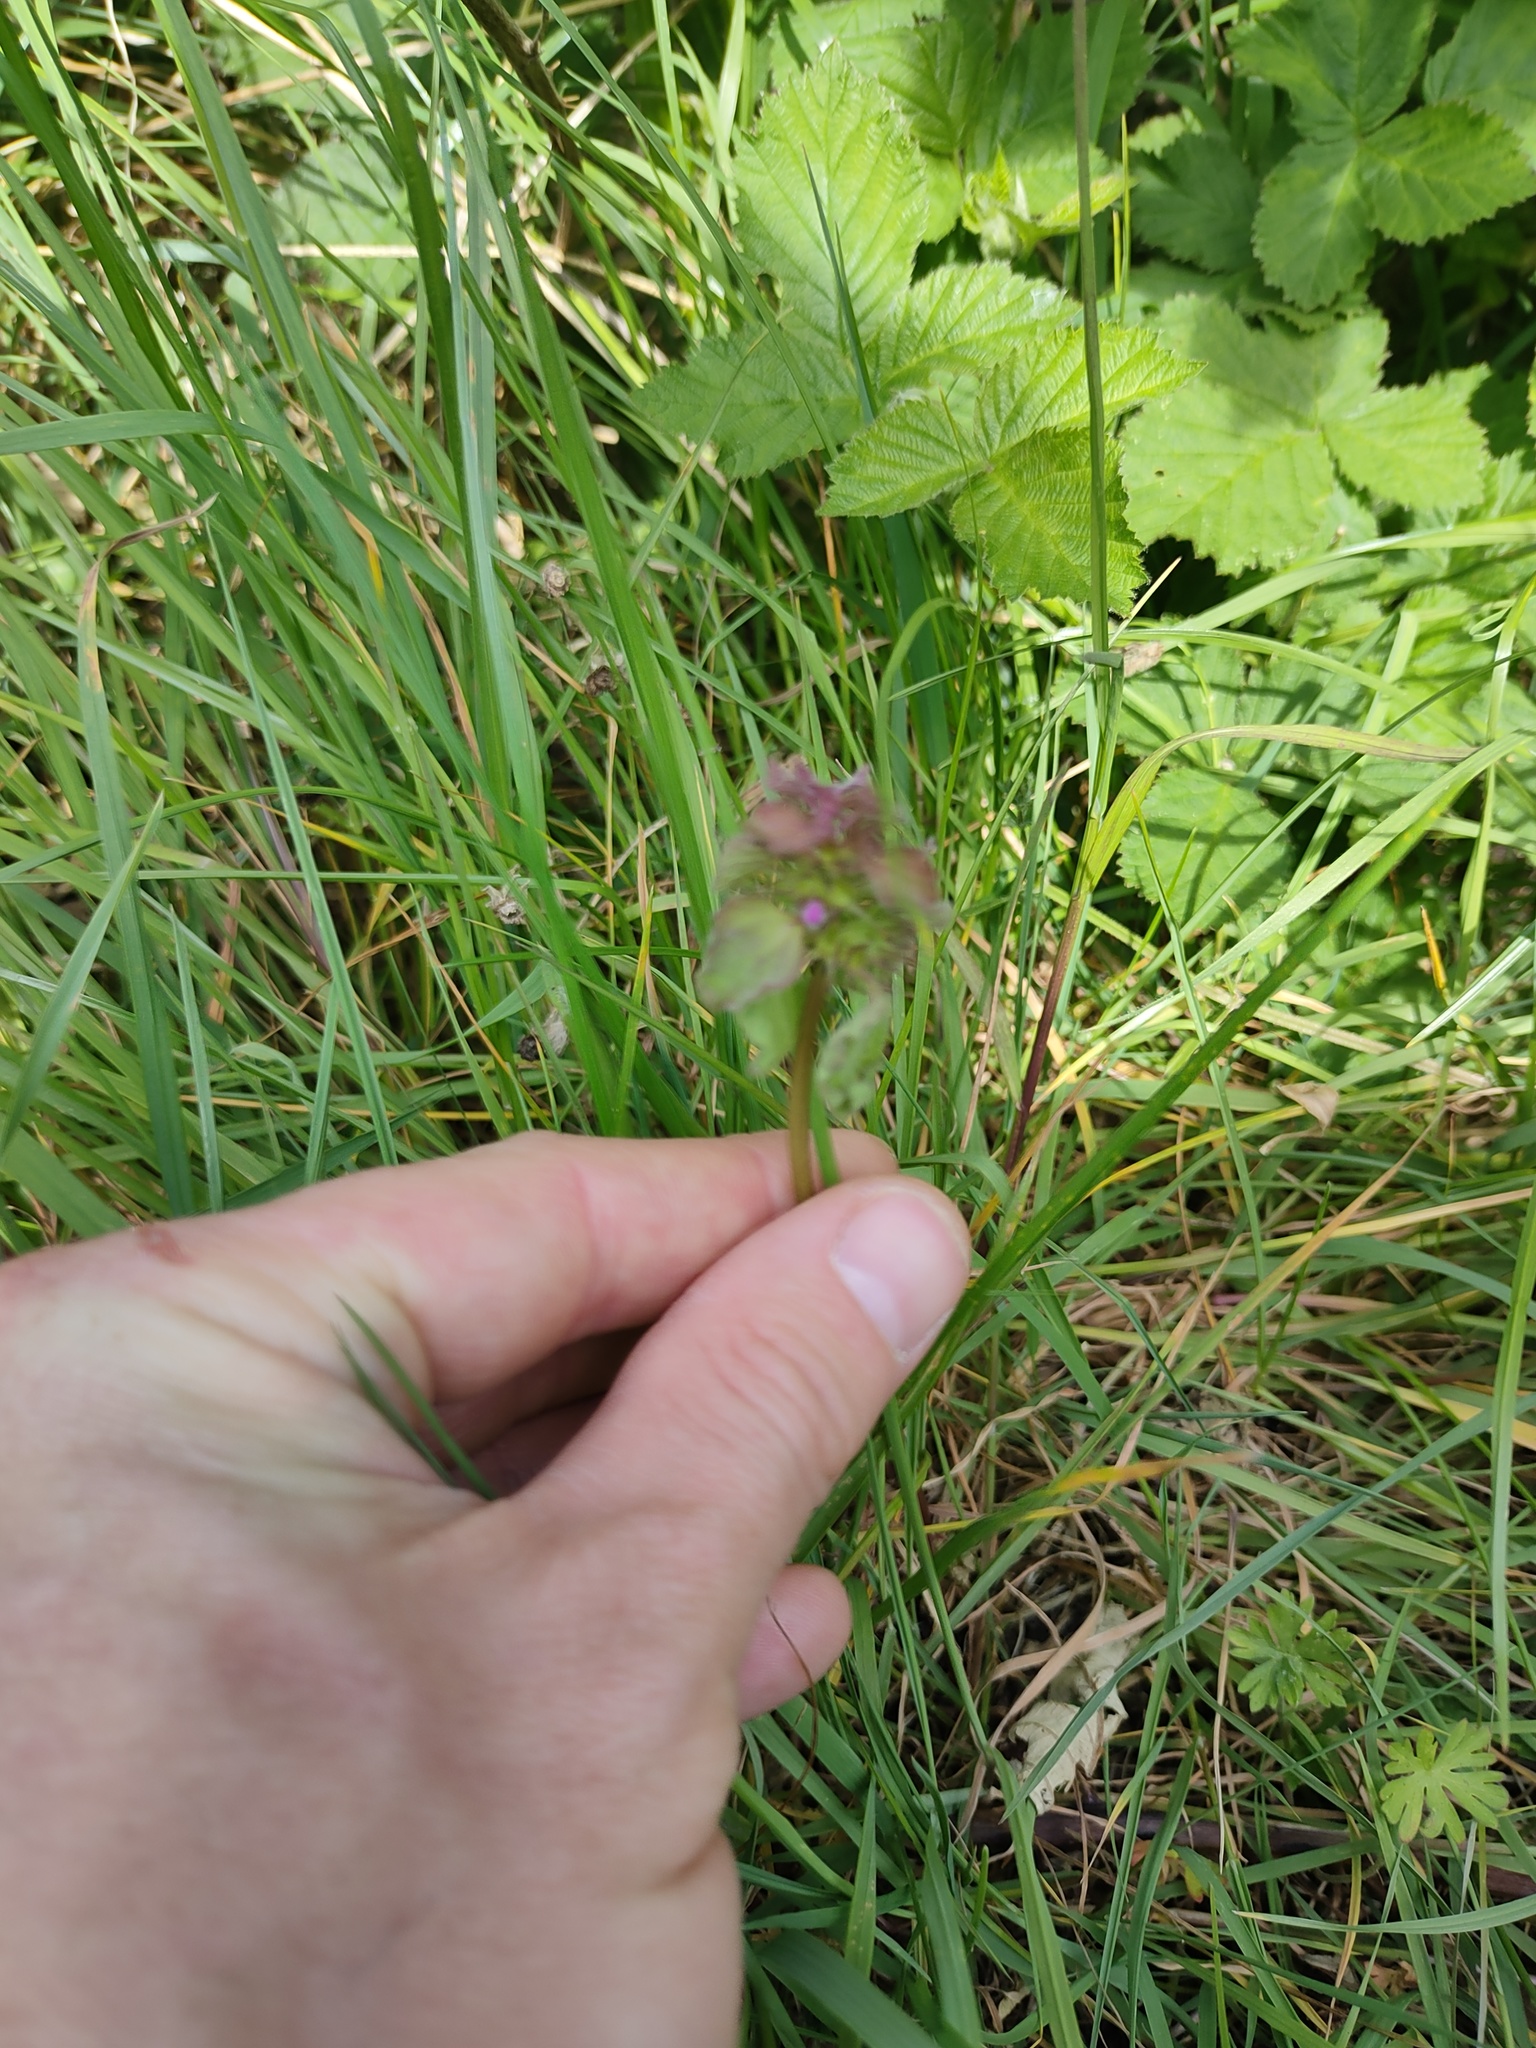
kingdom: Plantae
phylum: Tracheophyta
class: Magnoliopsida
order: Lamiales
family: Lamiaceae
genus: Lamium
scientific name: Lamium purpureum
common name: Red dead-nettle
